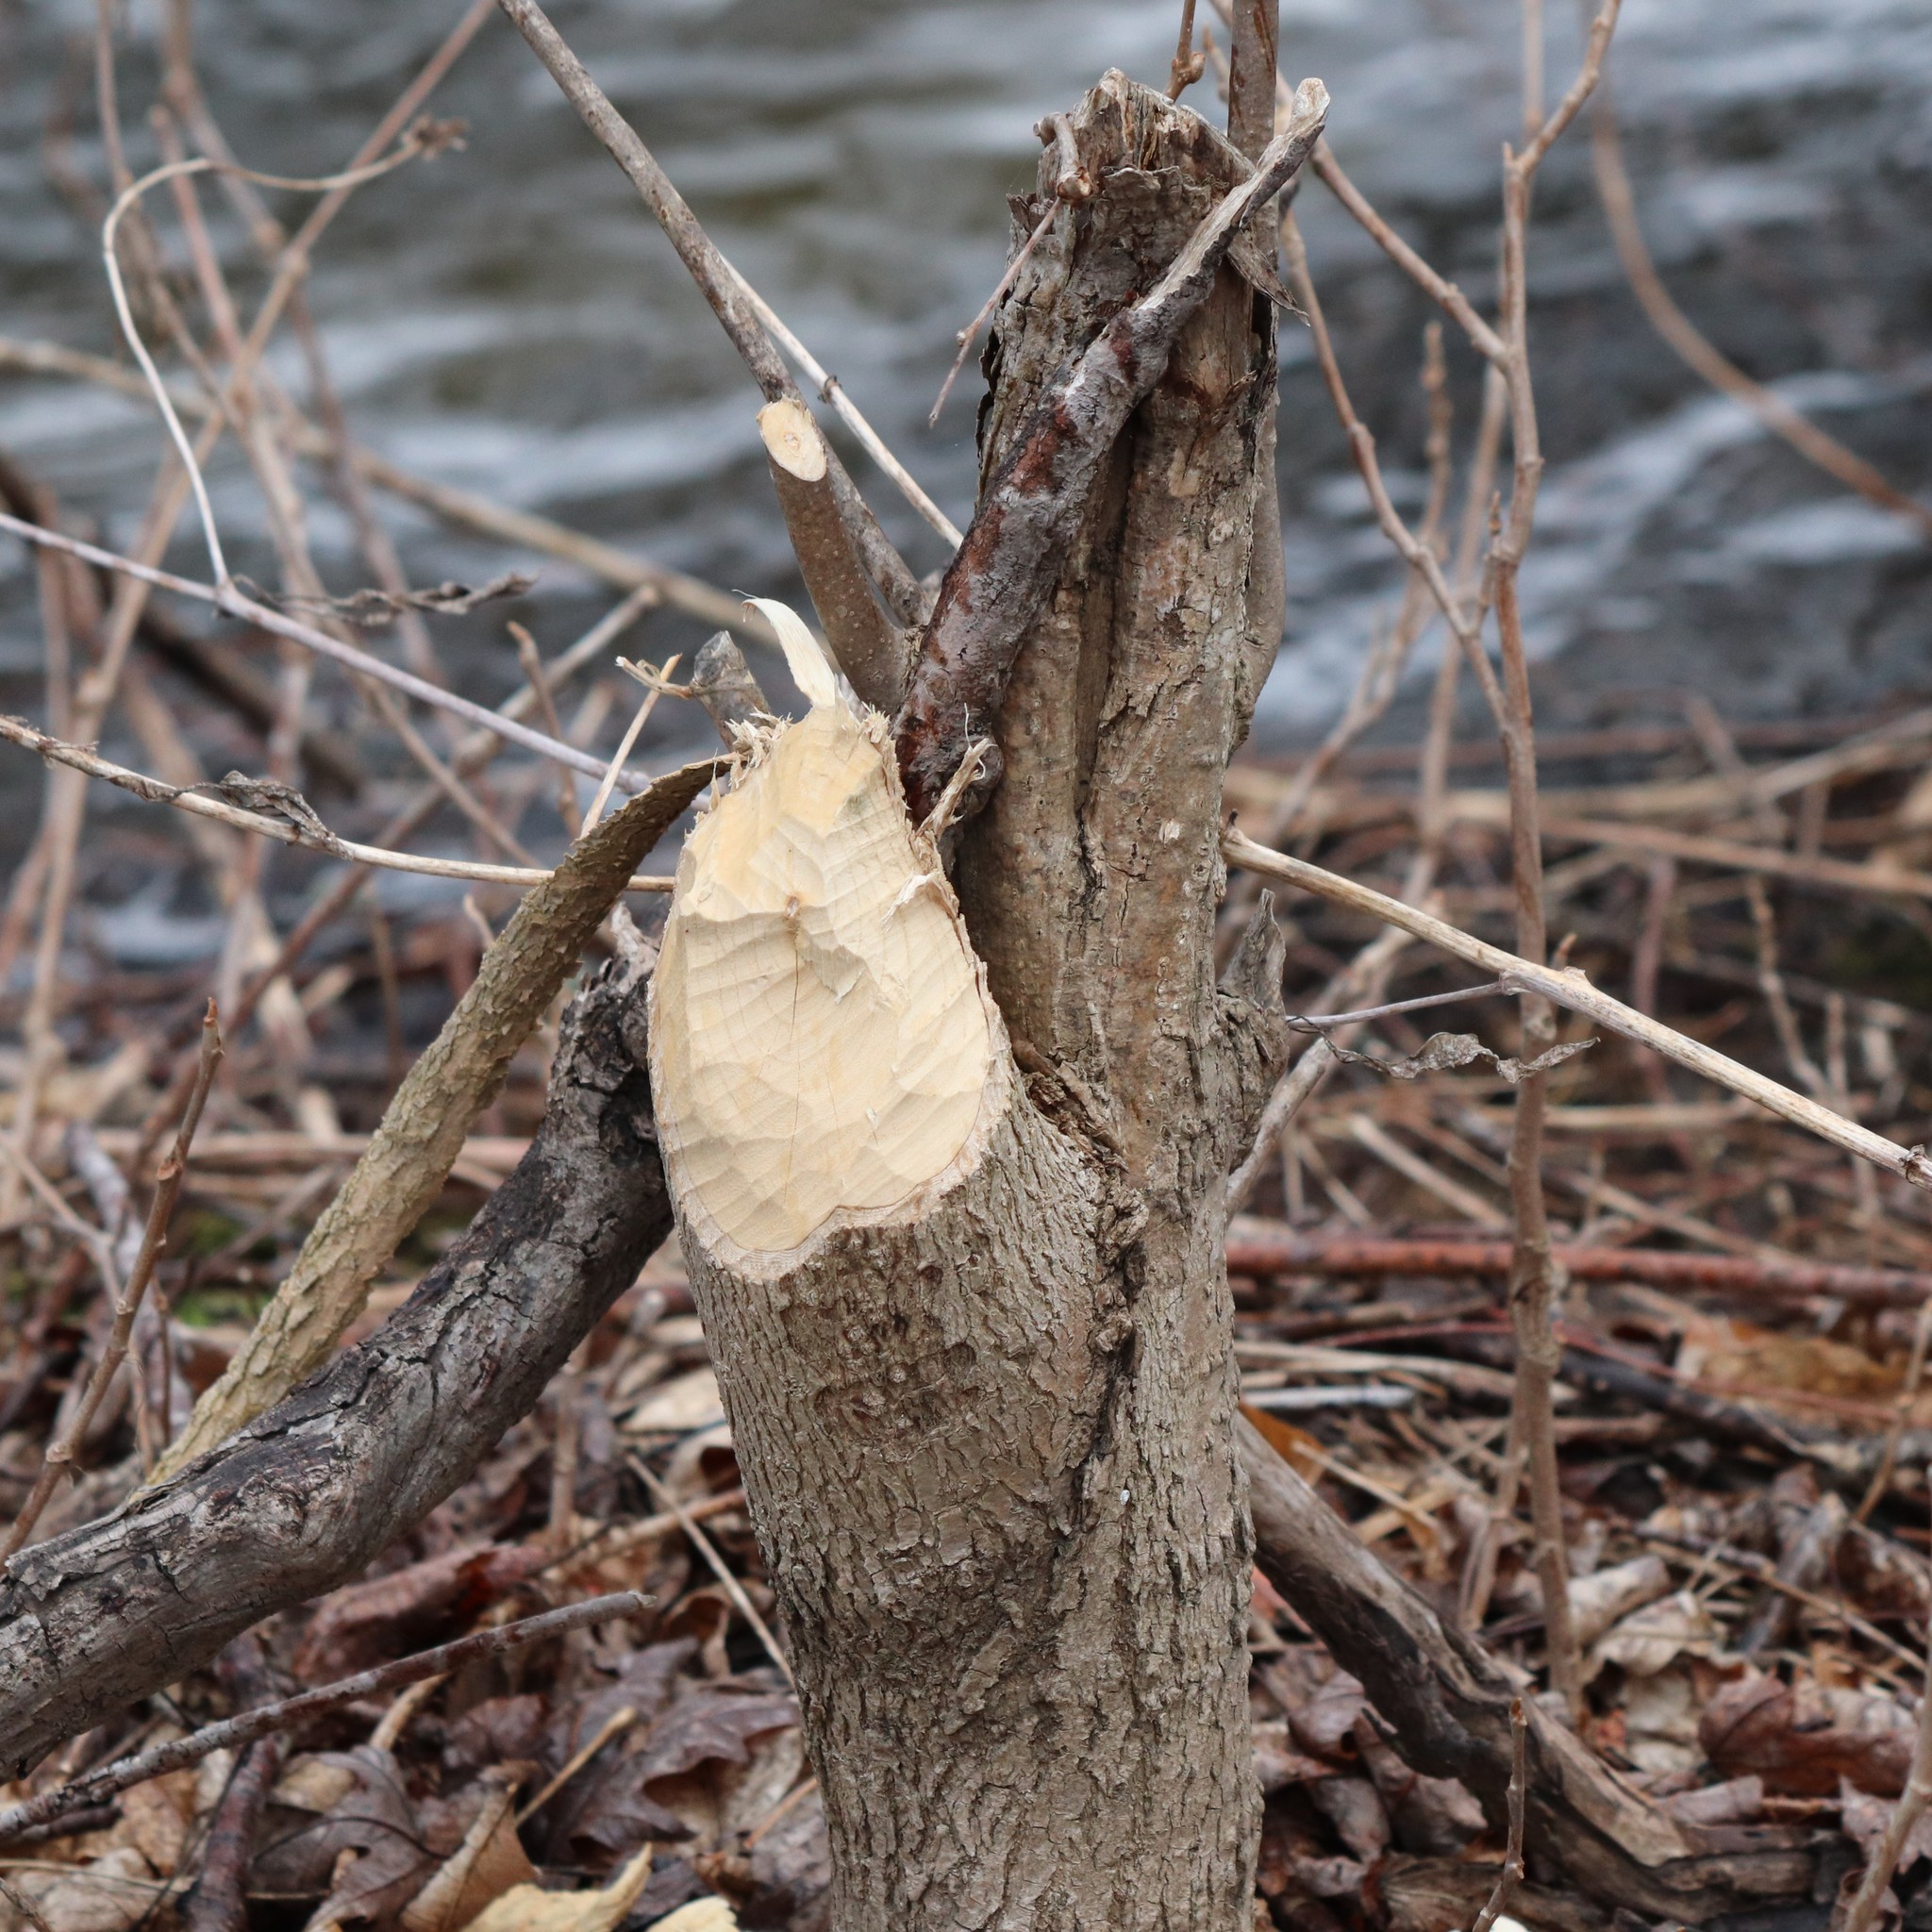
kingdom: Animalia
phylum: Chordata
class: Mammalia
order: Rodentia
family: Castoridae
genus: Castor
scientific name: Castor canadensis
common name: American beaver
